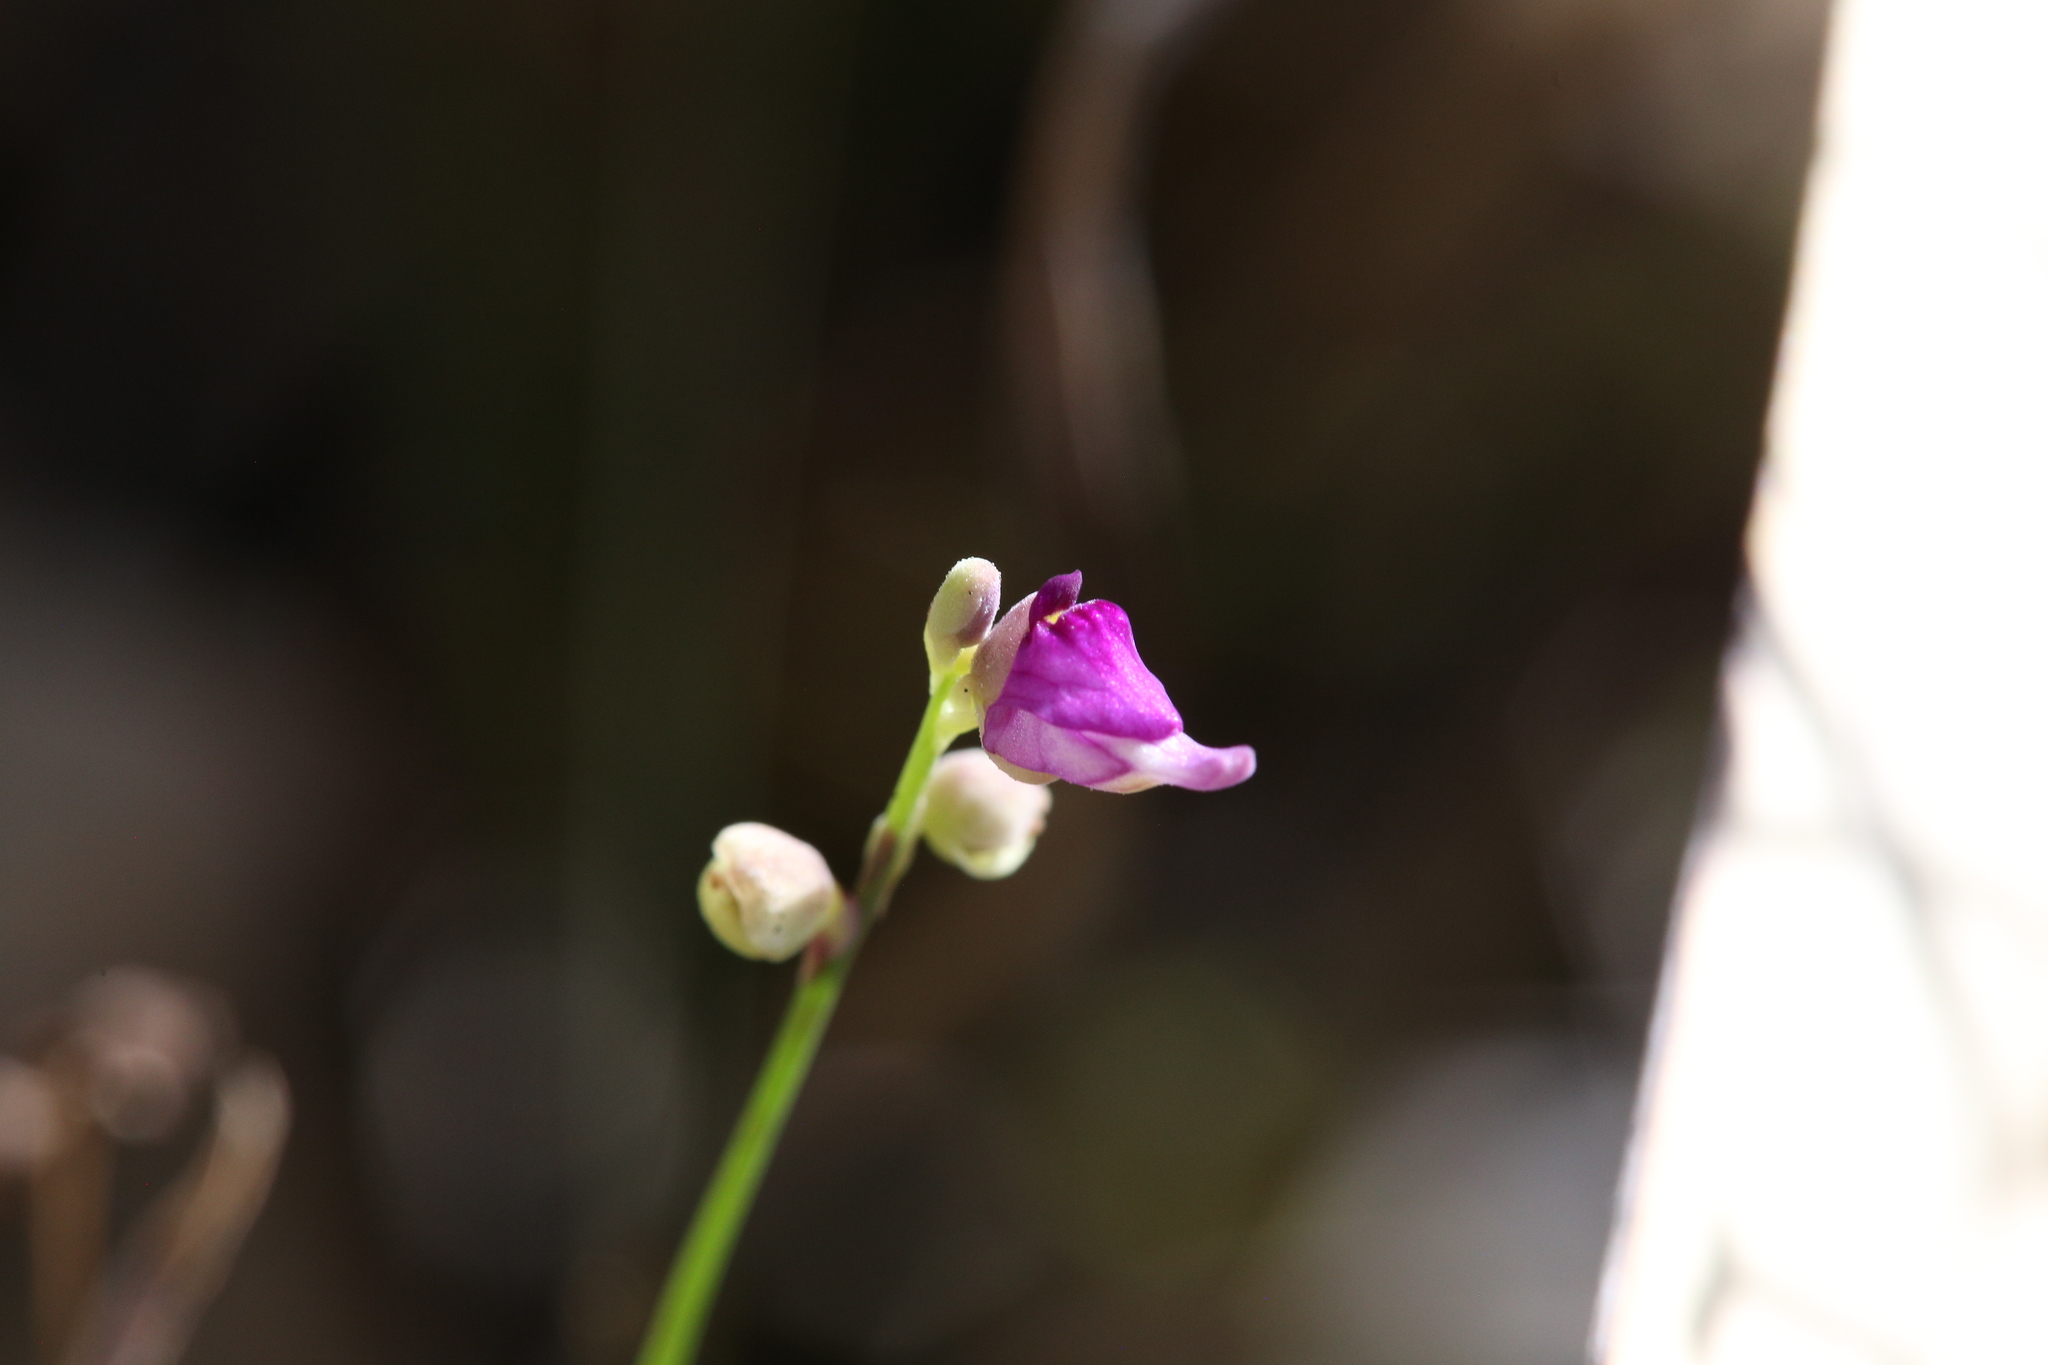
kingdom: Plantae
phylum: Tracheophyta
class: Magnoliopsida
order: Lamiales
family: Lentibulariaceae
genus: Utricularia
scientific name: Utricularia caerulea
